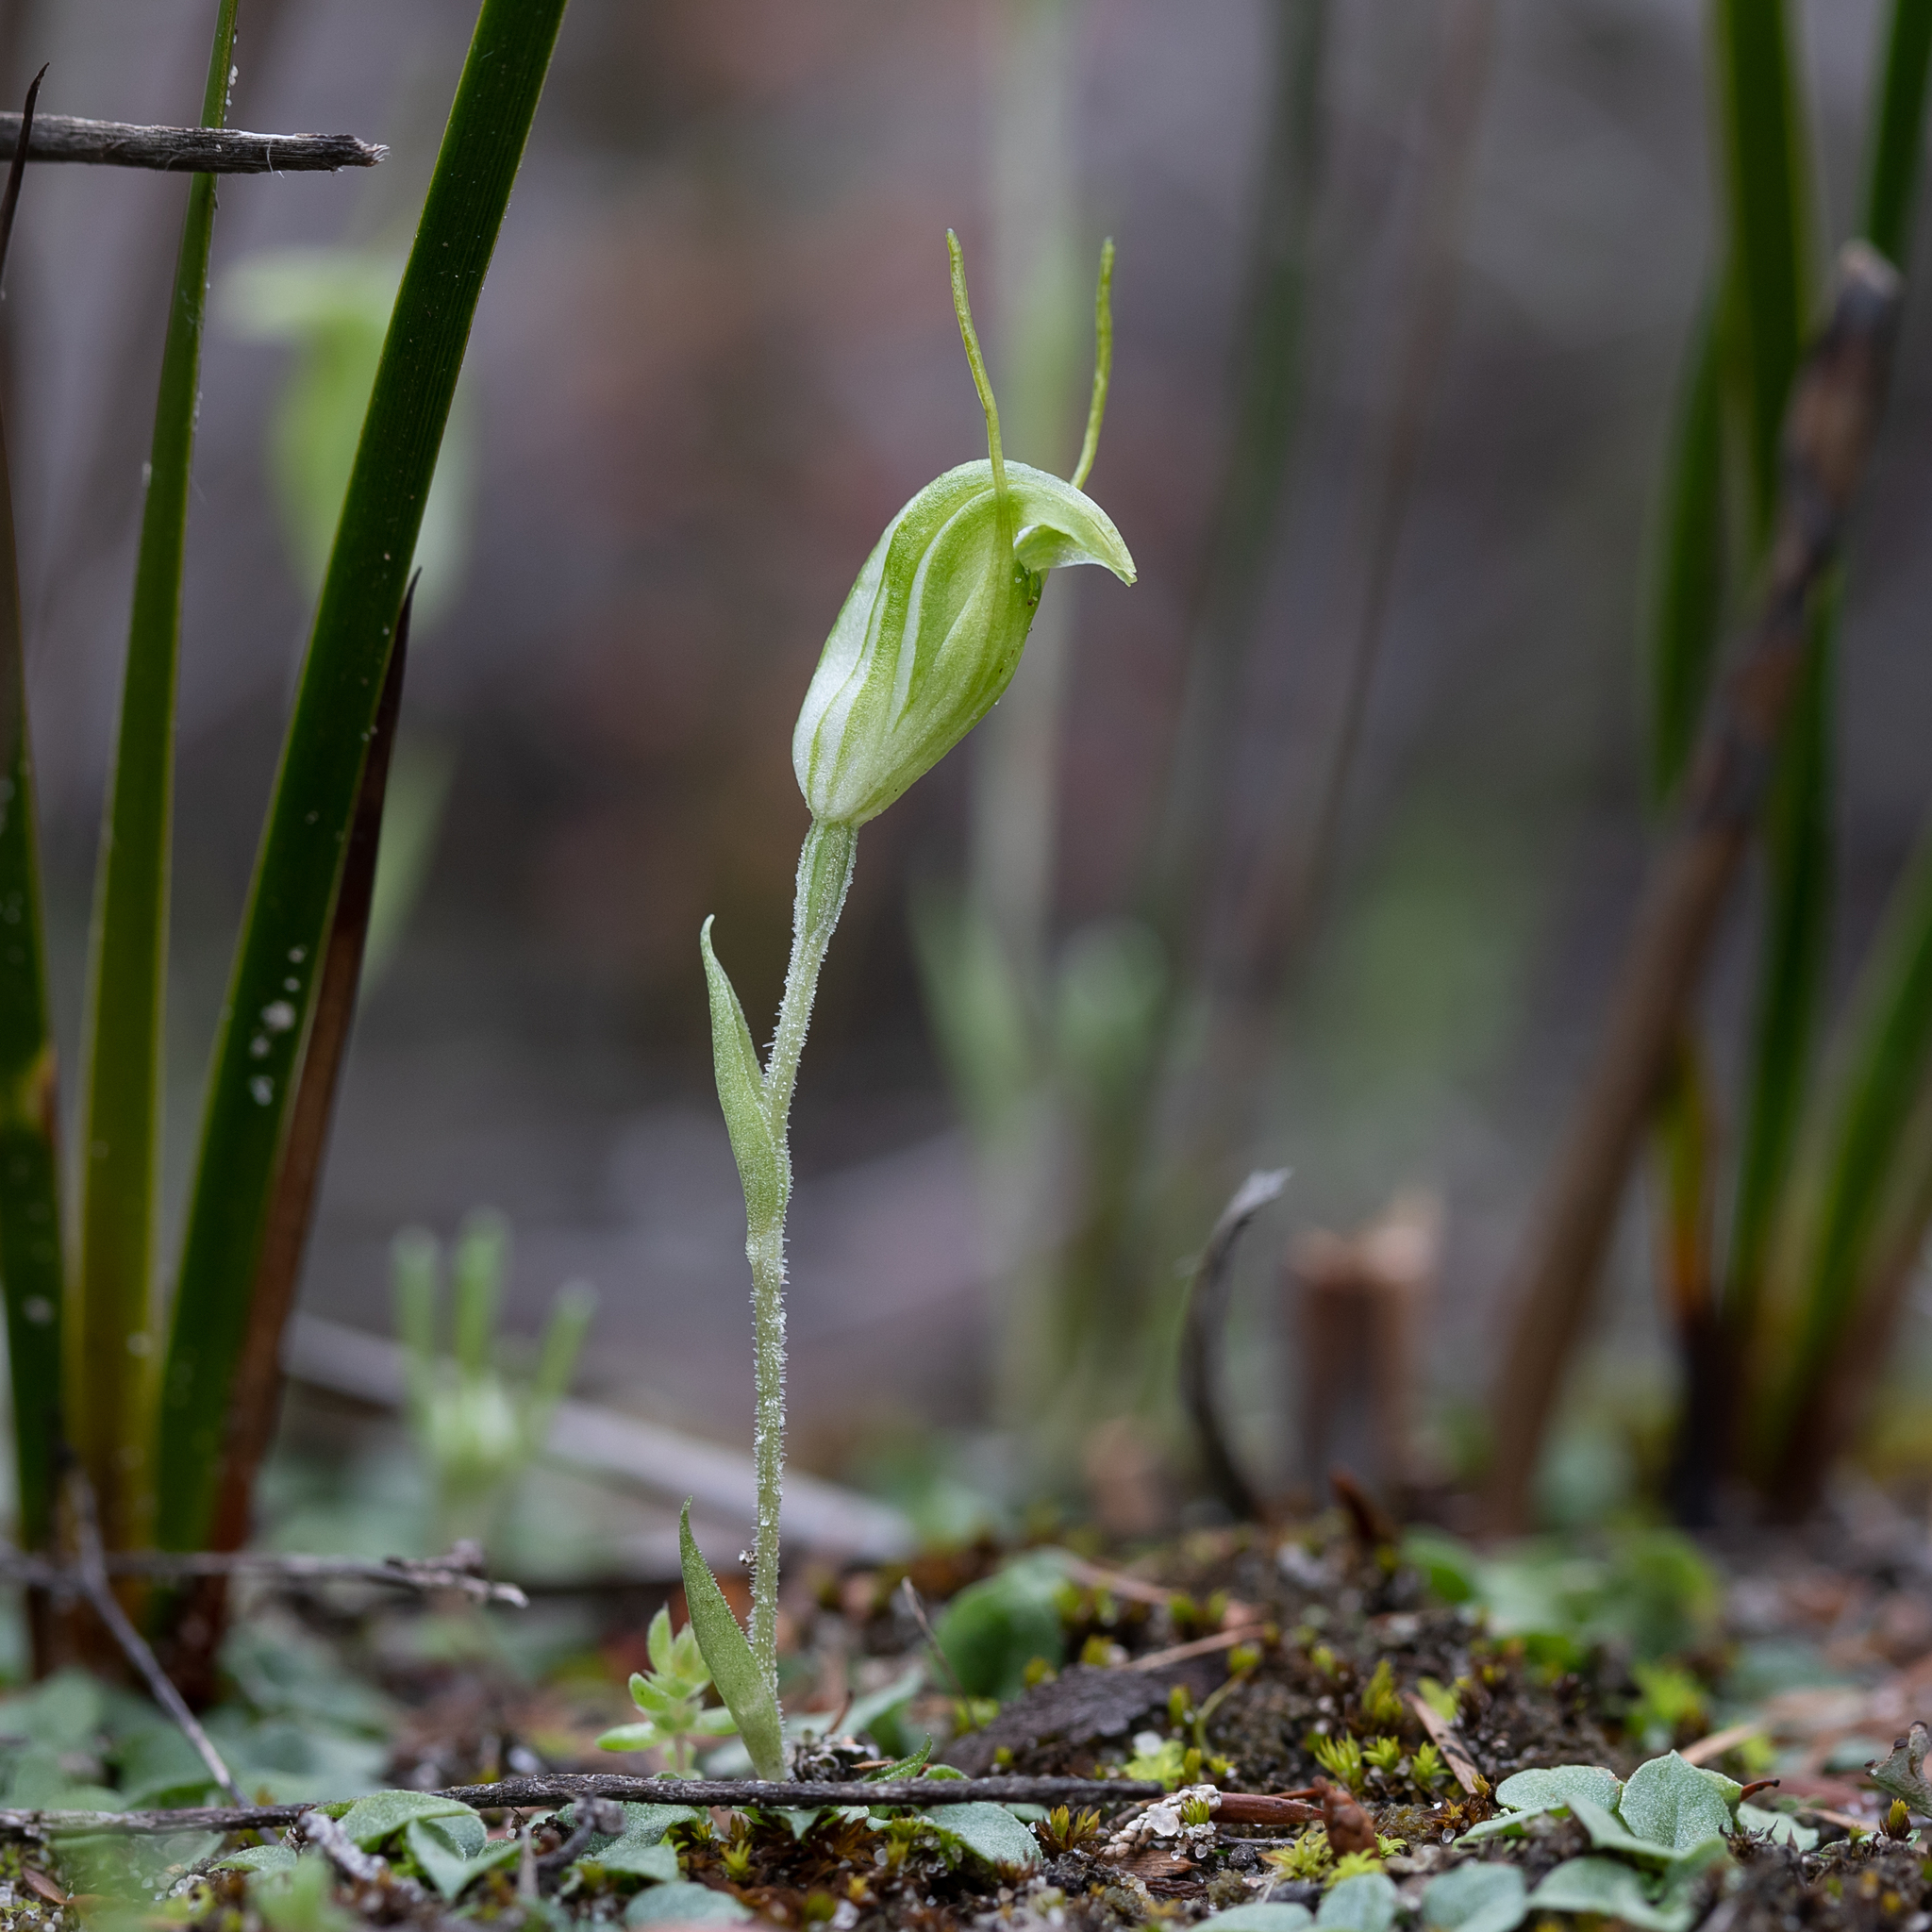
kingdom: Plantae
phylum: Tracheophyta
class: Liliopsida
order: Asparagales
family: Orchidaceae
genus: Pterostylis
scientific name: Pterostylis nana
